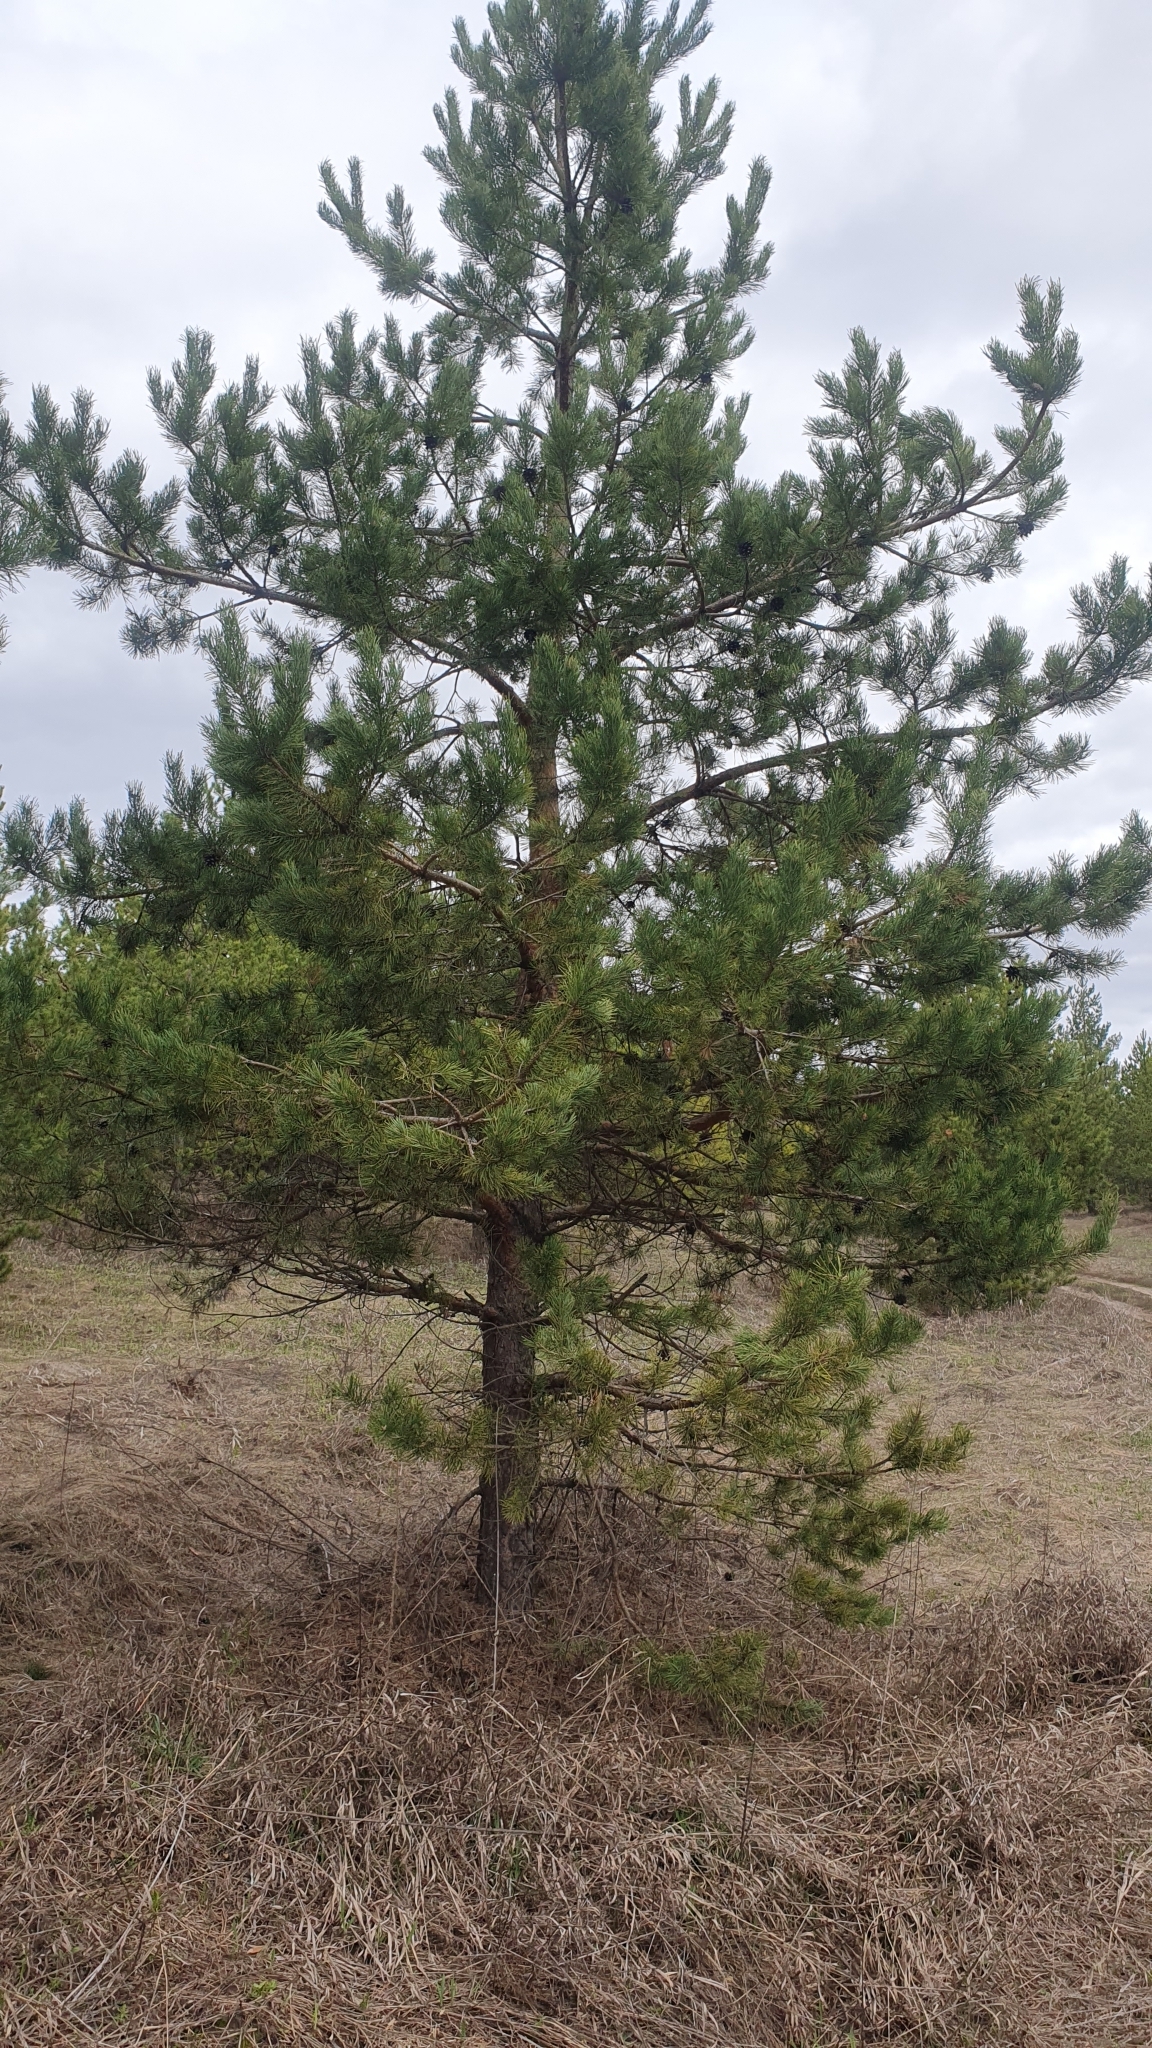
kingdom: Plantae
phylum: Tracheophyta
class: Pinopsida
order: Pinales
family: Pinaceae
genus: Pinus
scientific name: Pinus sylvestris
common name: Scots pine
